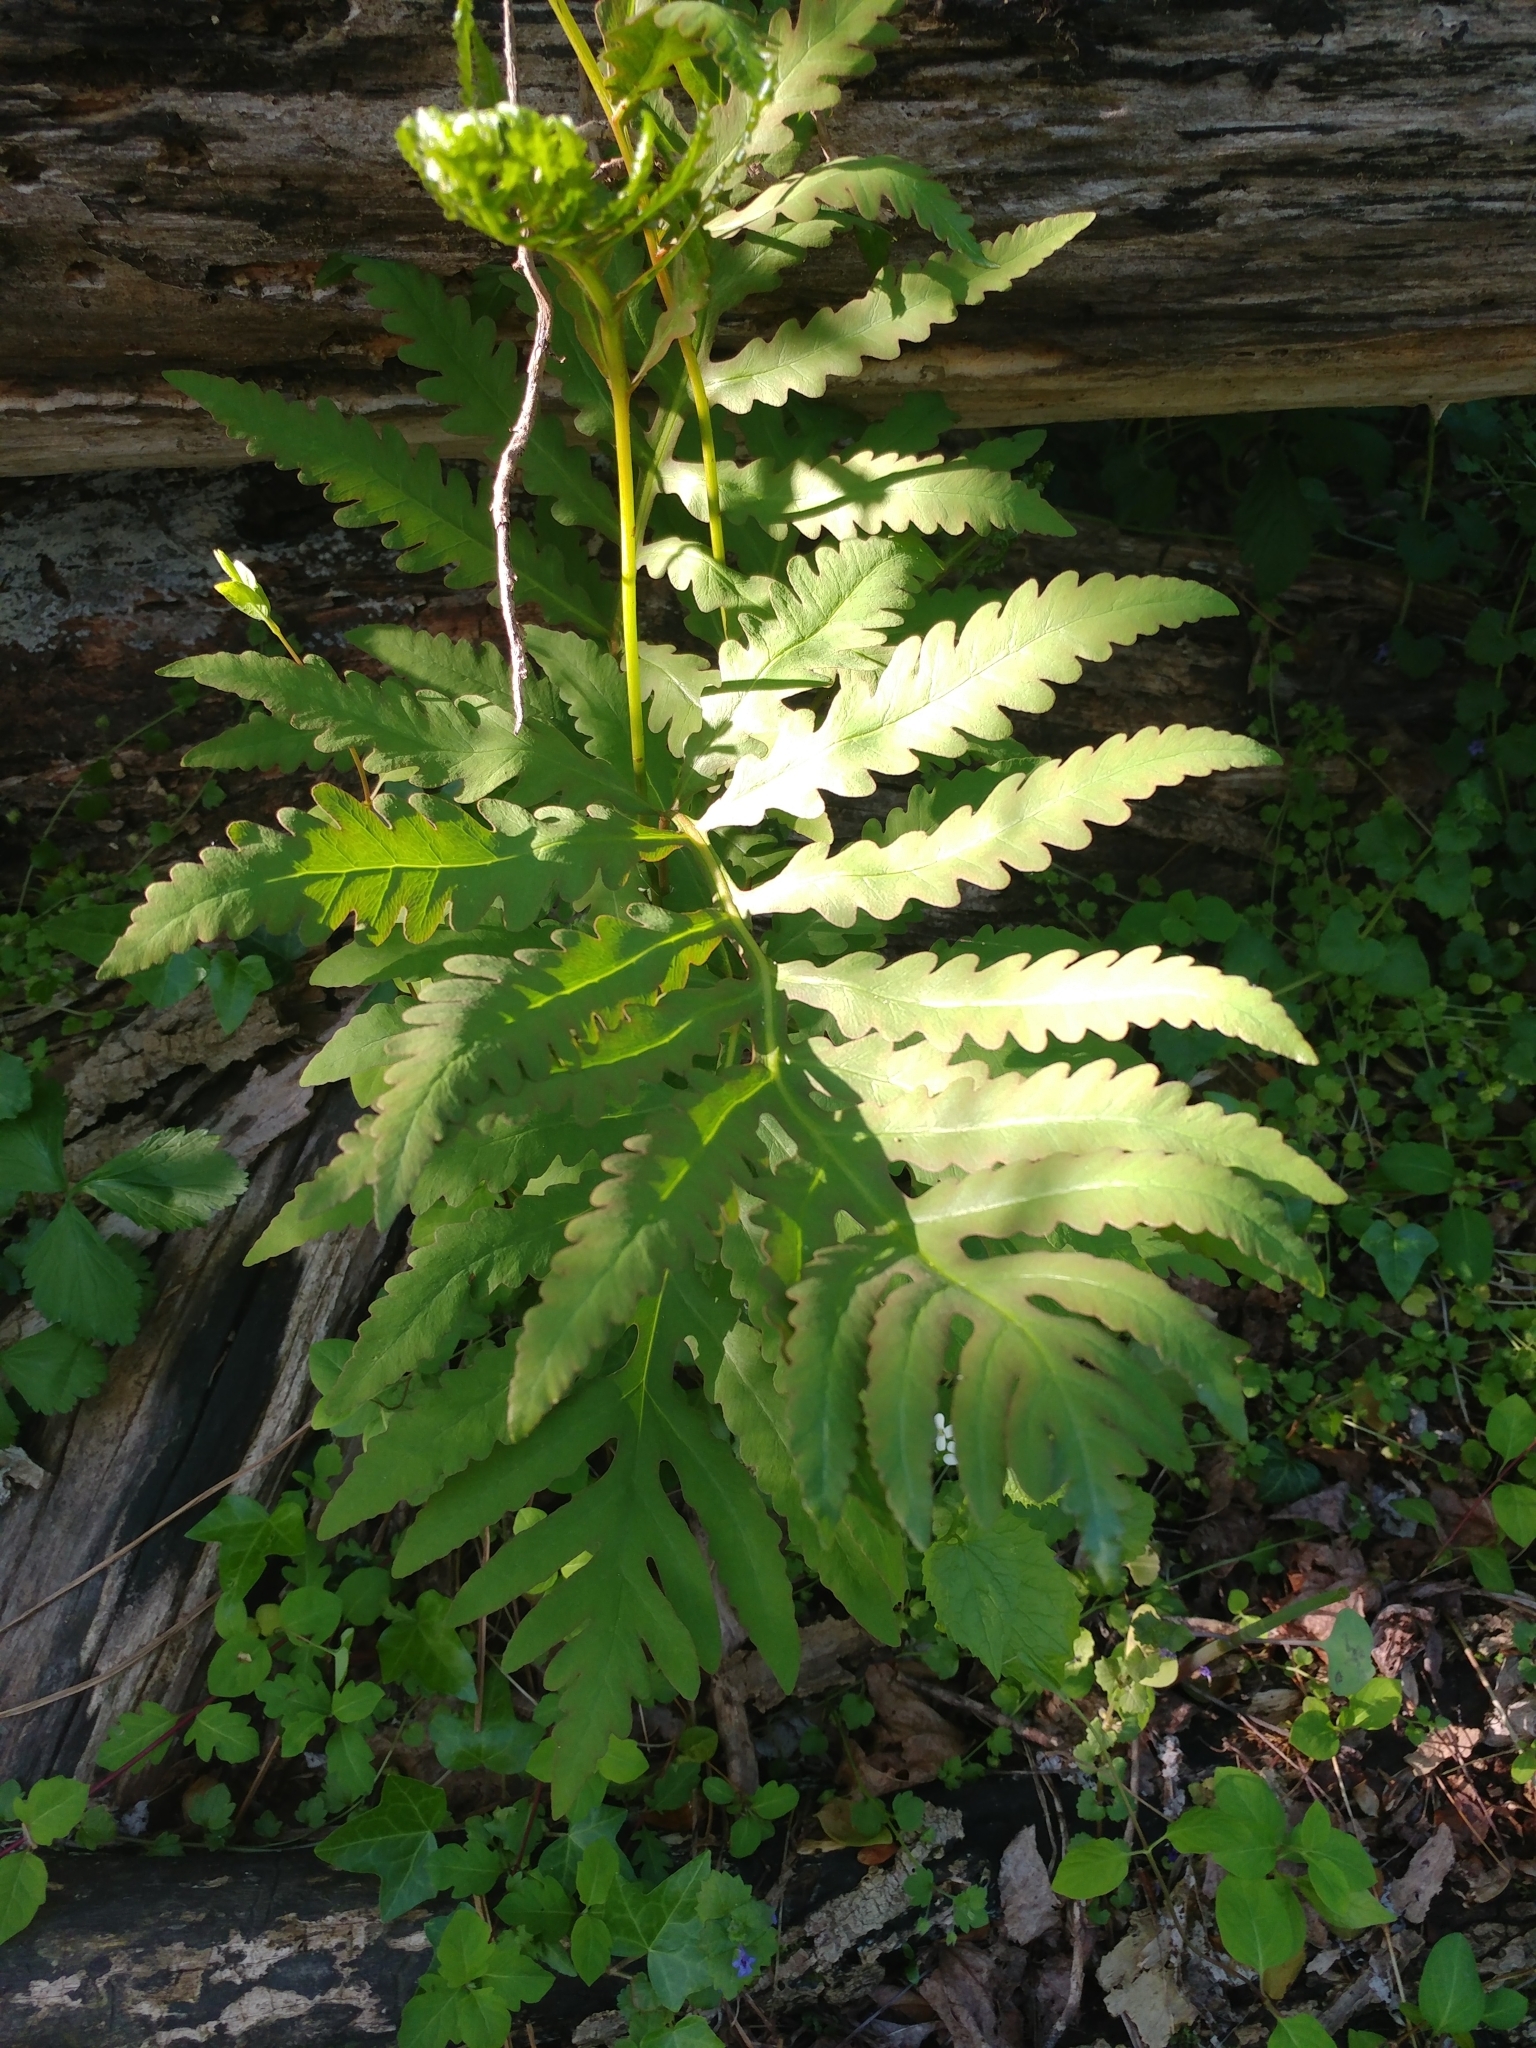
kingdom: Plantae
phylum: Tracheophyta
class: Polypodiopsida
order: Polypodiales
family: Onocleaceae
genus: Onoclea
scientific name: Onoclea sensibilis
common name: Sensitive fern
